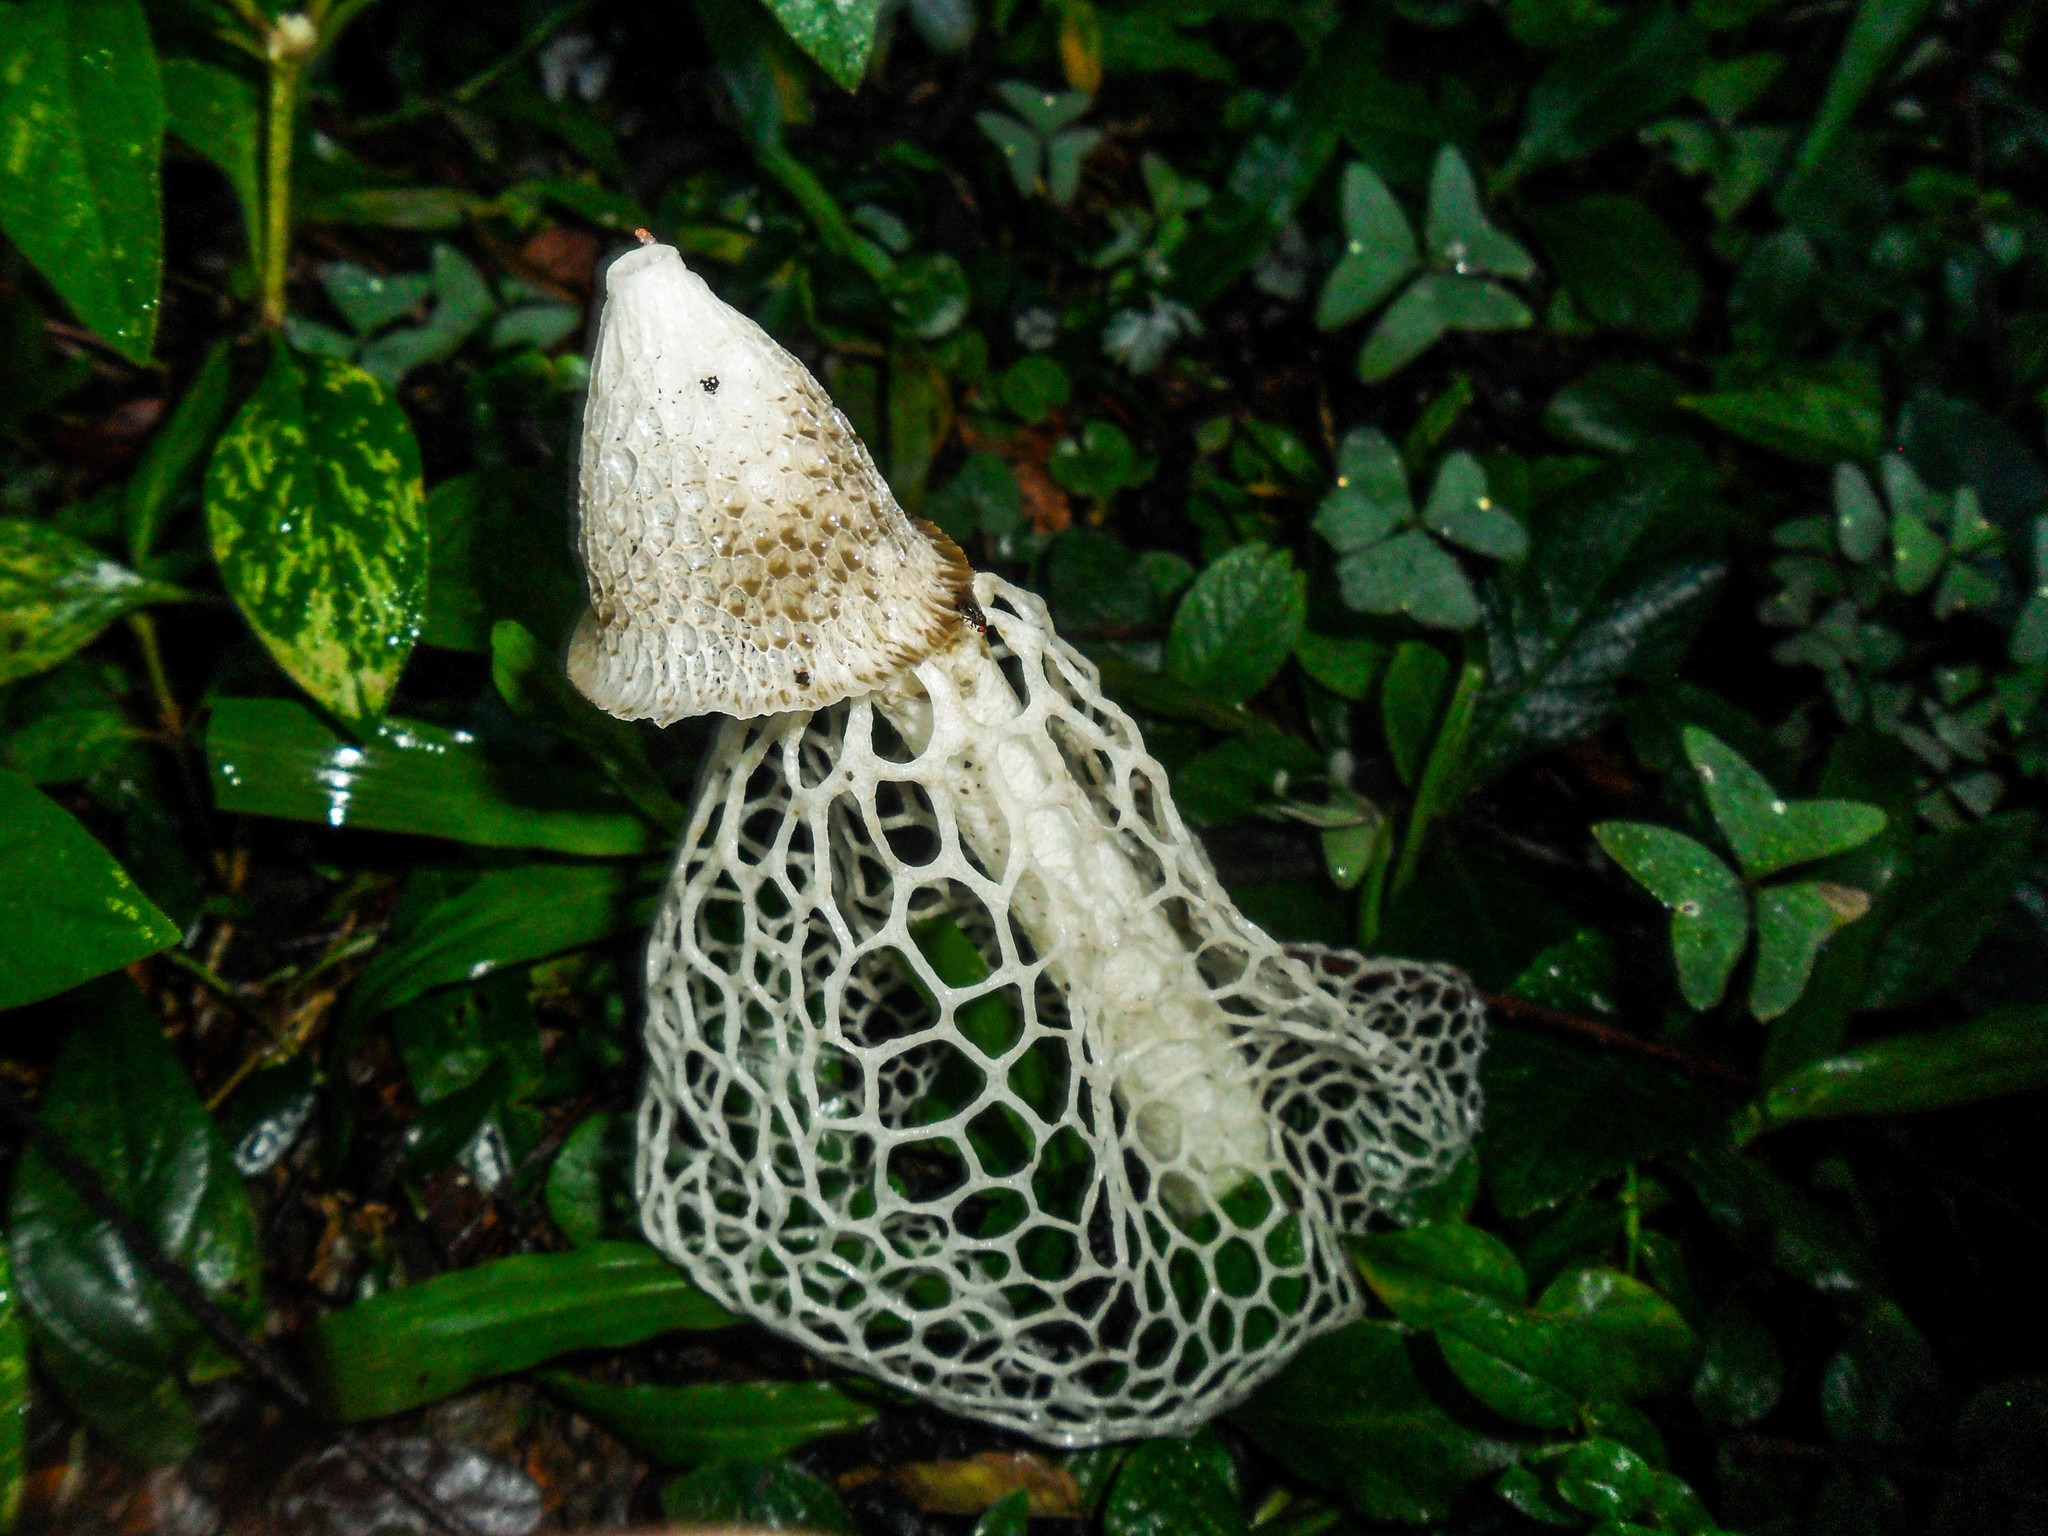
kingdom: Fungi
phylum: Basidiomycota
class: Agaricomycetes
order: Phallales
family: Phallaceae
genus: Phallus
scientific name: Phallus indusiatus
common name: Bridal veil stinkhorn
